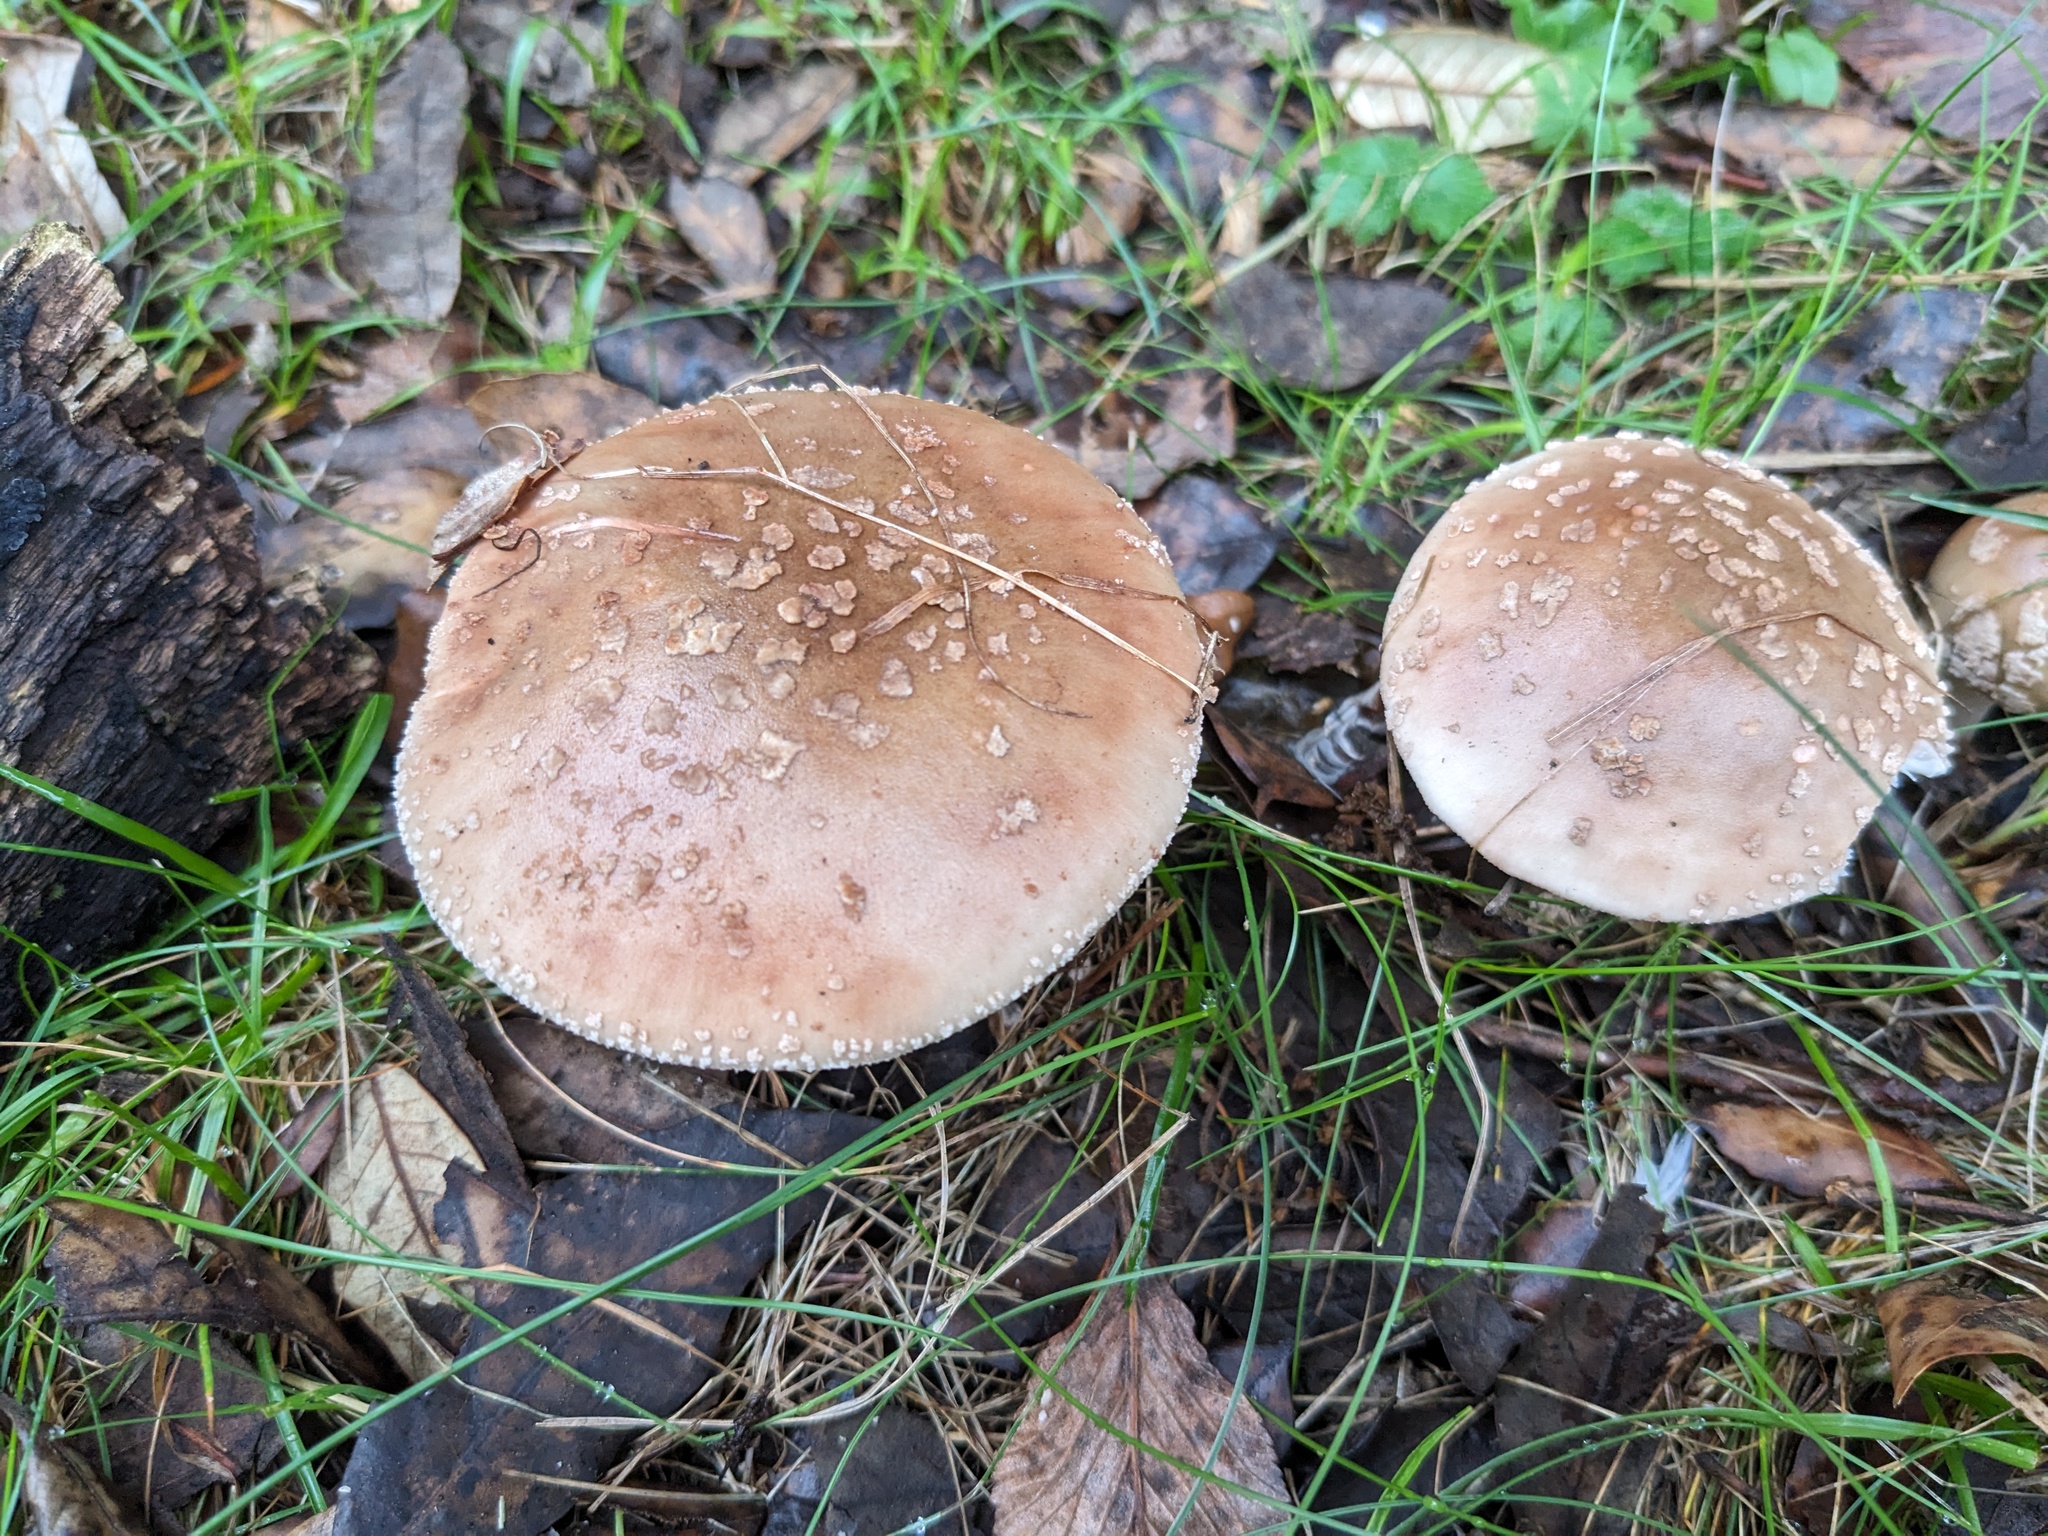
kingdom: Fungi
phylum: Basidiomycota
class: Agaricomycetes
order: Agaricales
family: Amanitaceae
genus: Amanita
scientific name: Amanita rubescens
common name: Blusher
